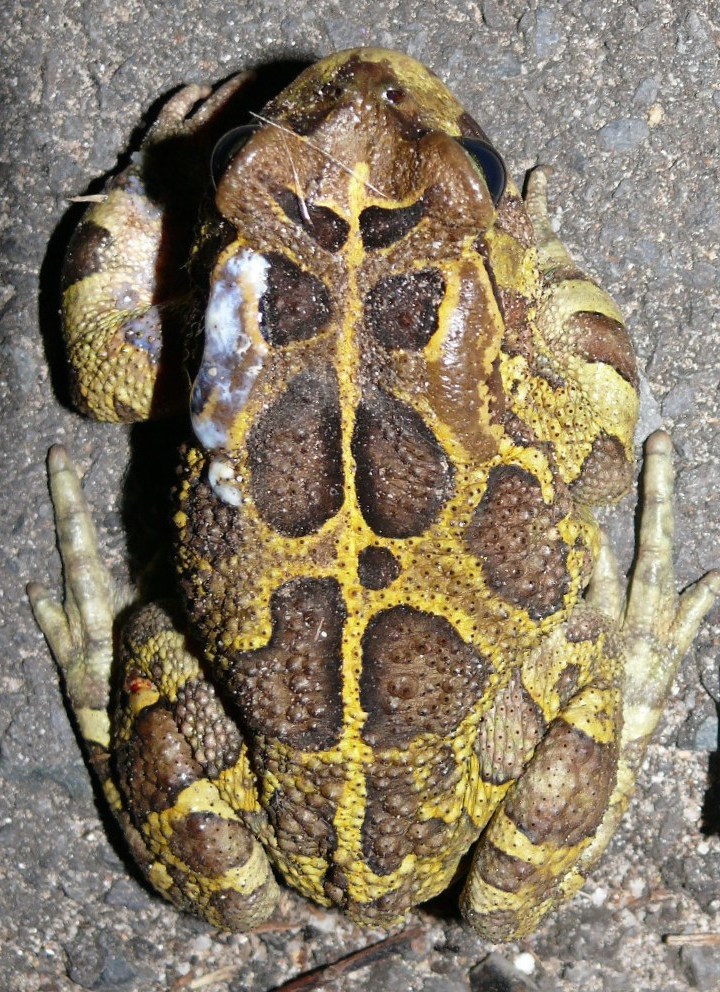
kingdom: Animalia
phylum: Chordata
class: Amphibia
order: Anura
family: Bufonidae
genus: Sclerophrys
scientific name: Sclerophrys pantherina
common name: Panther toad
